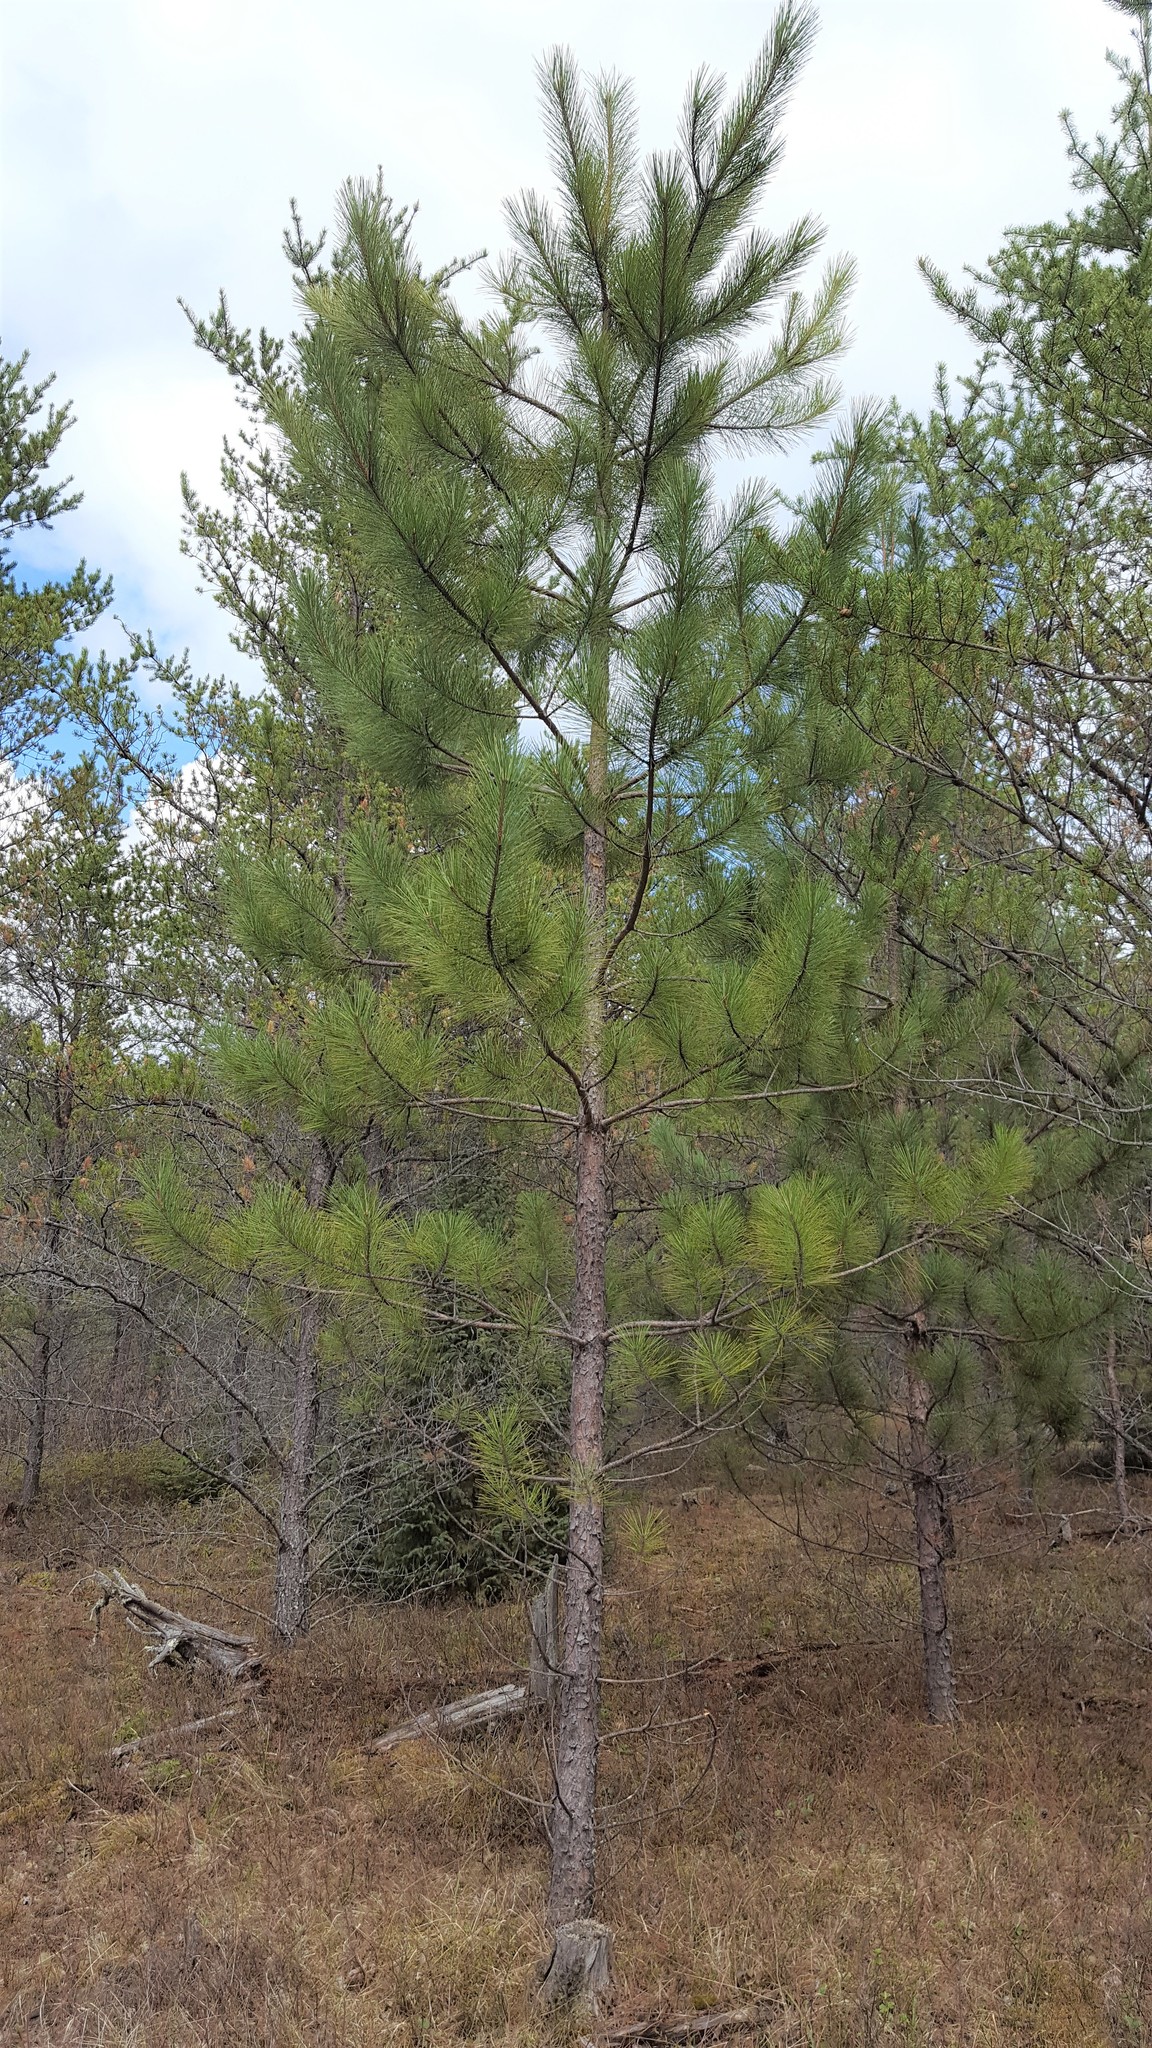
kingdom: Plantae
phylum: Tracheophyta
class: Pinopsida
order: Pinales
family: Pinaceae
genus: Pinus
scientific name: Pinus resinosa
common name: Norway pine
